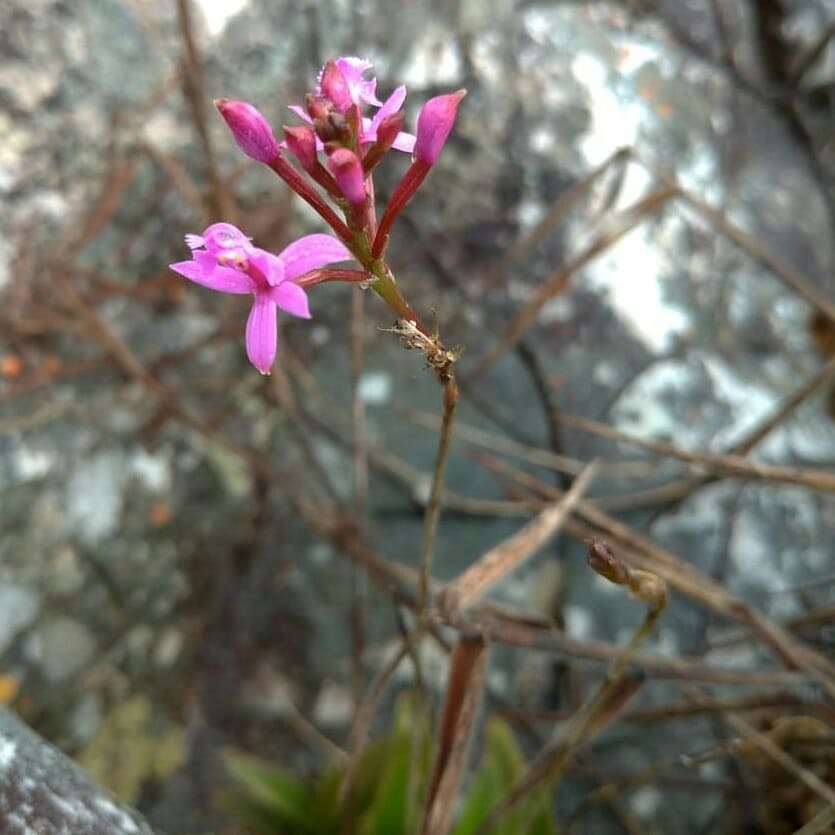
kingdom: Plantae
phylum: Tracheophyta
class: Liliopsida
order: Asparagales
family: Orchidaceae
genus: Epidendrum
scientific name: Epidendrum secundum
